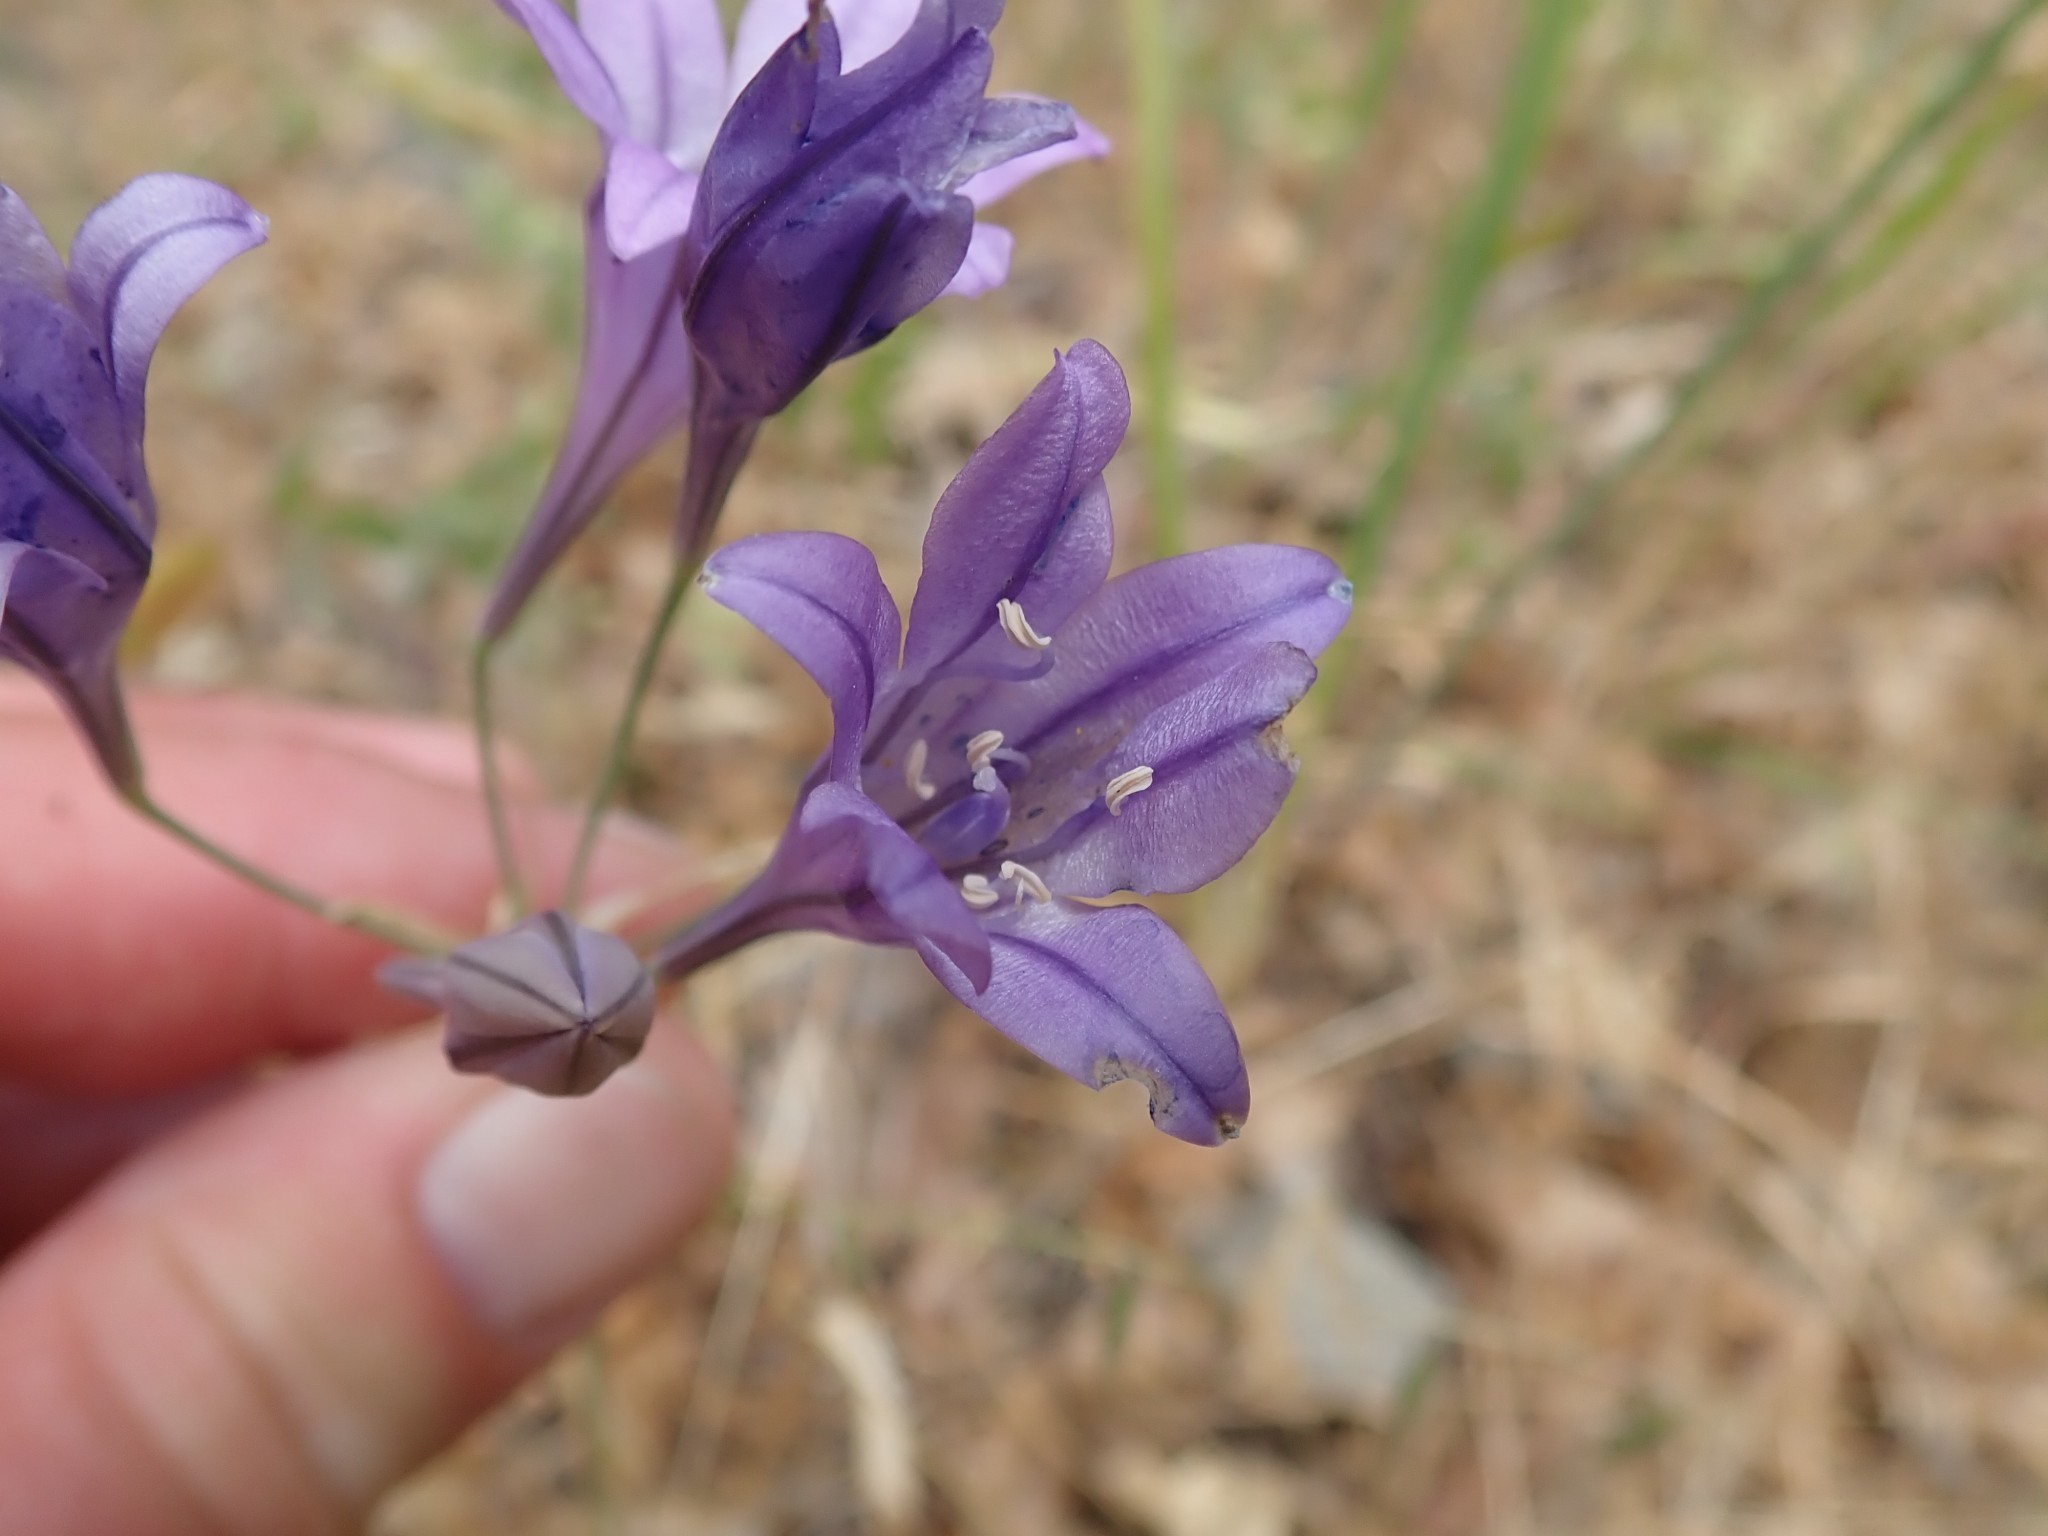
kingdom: Plantae
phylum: Tracheophyta
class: Liliopsida
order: Asparagales
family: Asparagaceae
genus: Triteleia
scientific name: Triteleia laxa
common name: Triplet-lily
